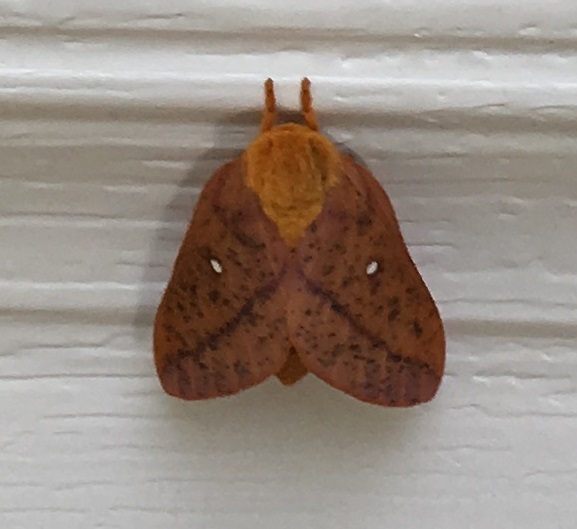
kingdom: Animalia
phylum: Arthropoda
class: Insecta
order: Lepidoptera
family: Saturniidae
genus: Anisota
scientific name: Anisota stigma
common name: Spiny oakworm moth
